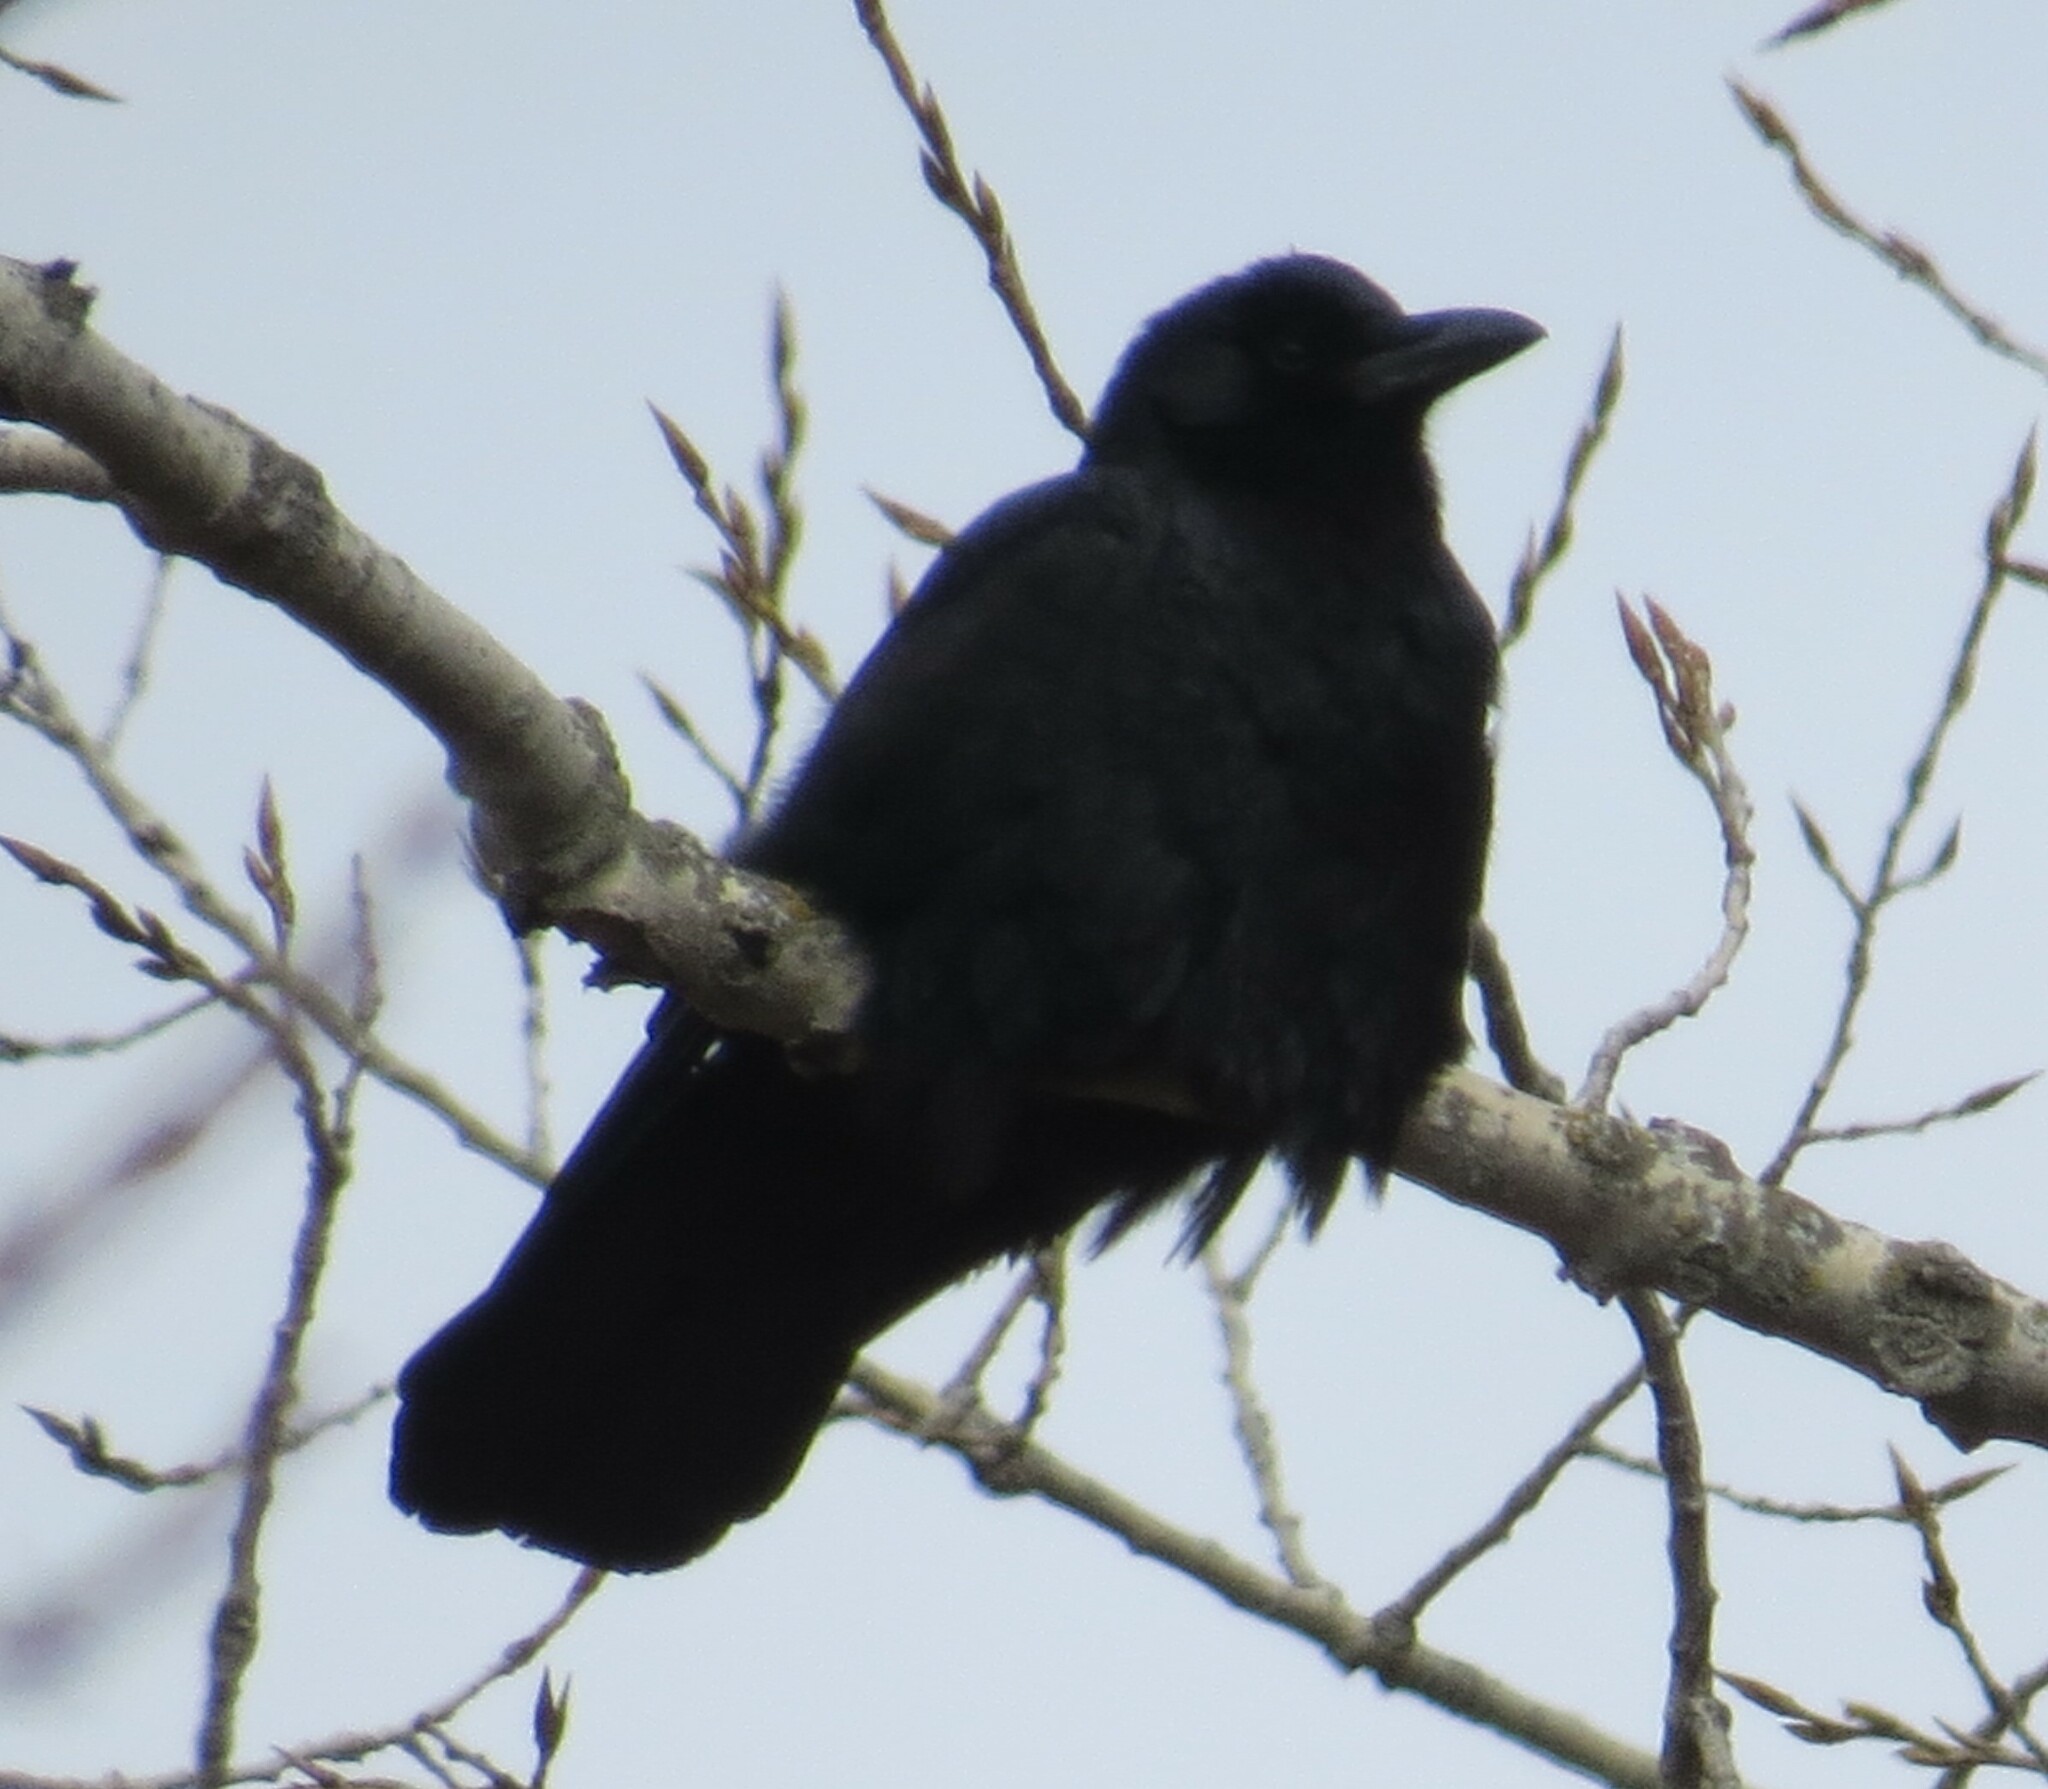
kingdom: Animalia
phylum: Chordata
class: Aves
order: Passeriformes
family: Corvidae
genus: Corvus
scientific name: Corvus brachyrhynchos
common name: American crow
